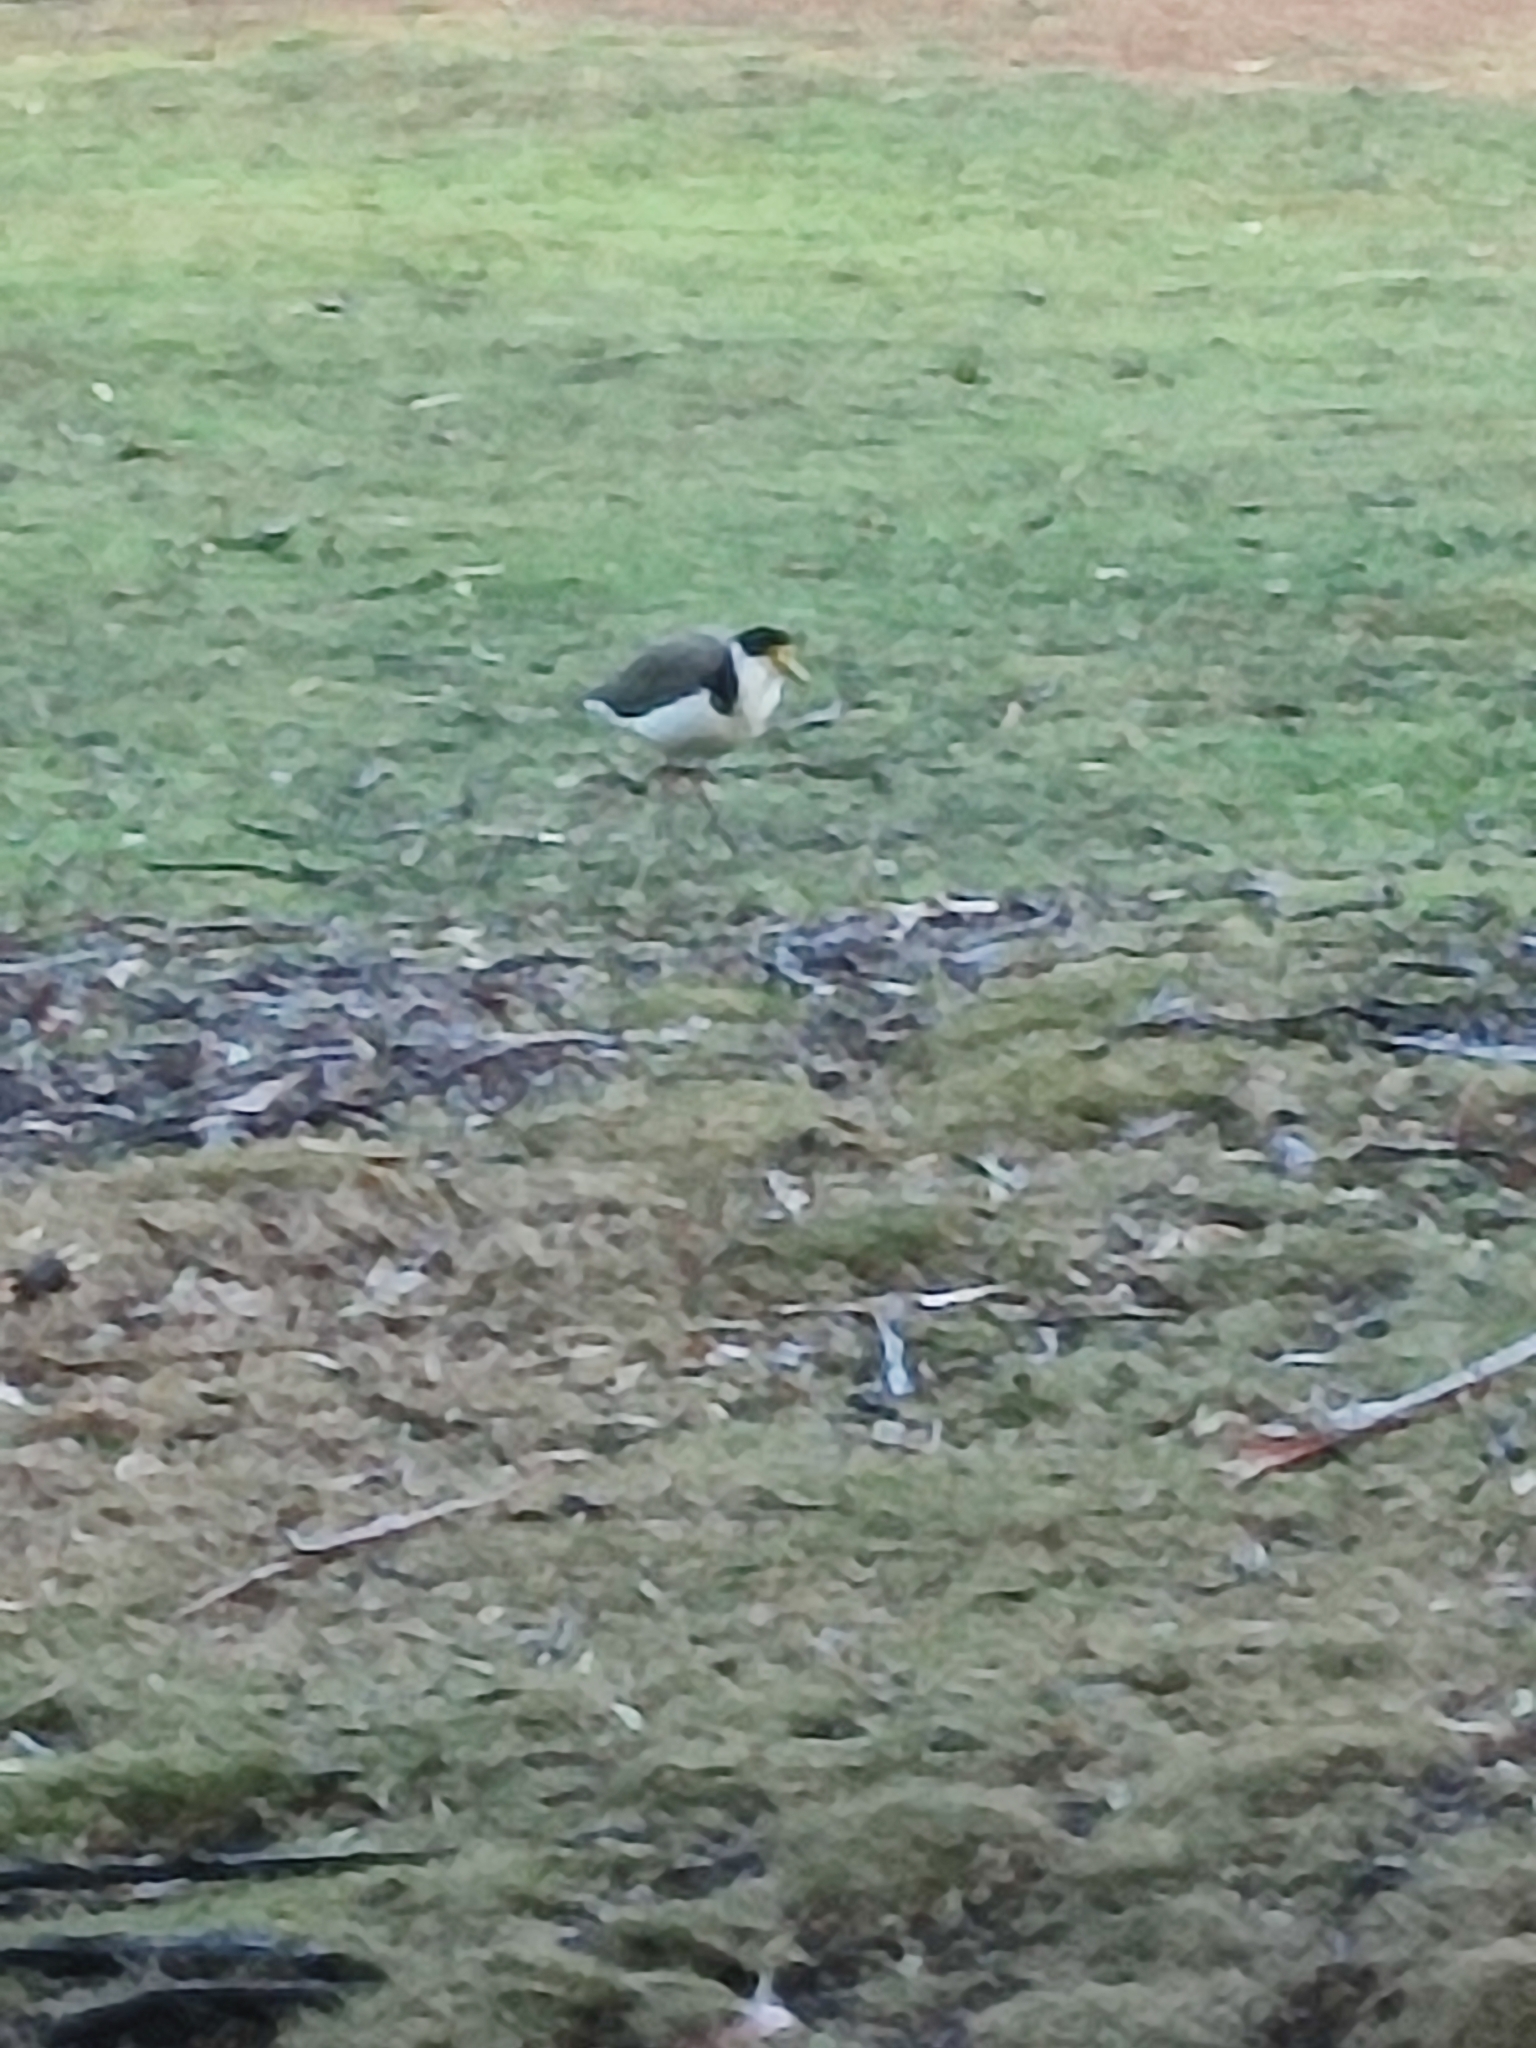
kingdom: Animalia
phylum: Chordata
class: Aves
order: Charadriiformes
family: Charadriidae
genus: Vanellus
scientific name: Vanellus miles
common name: Masked lapwing
